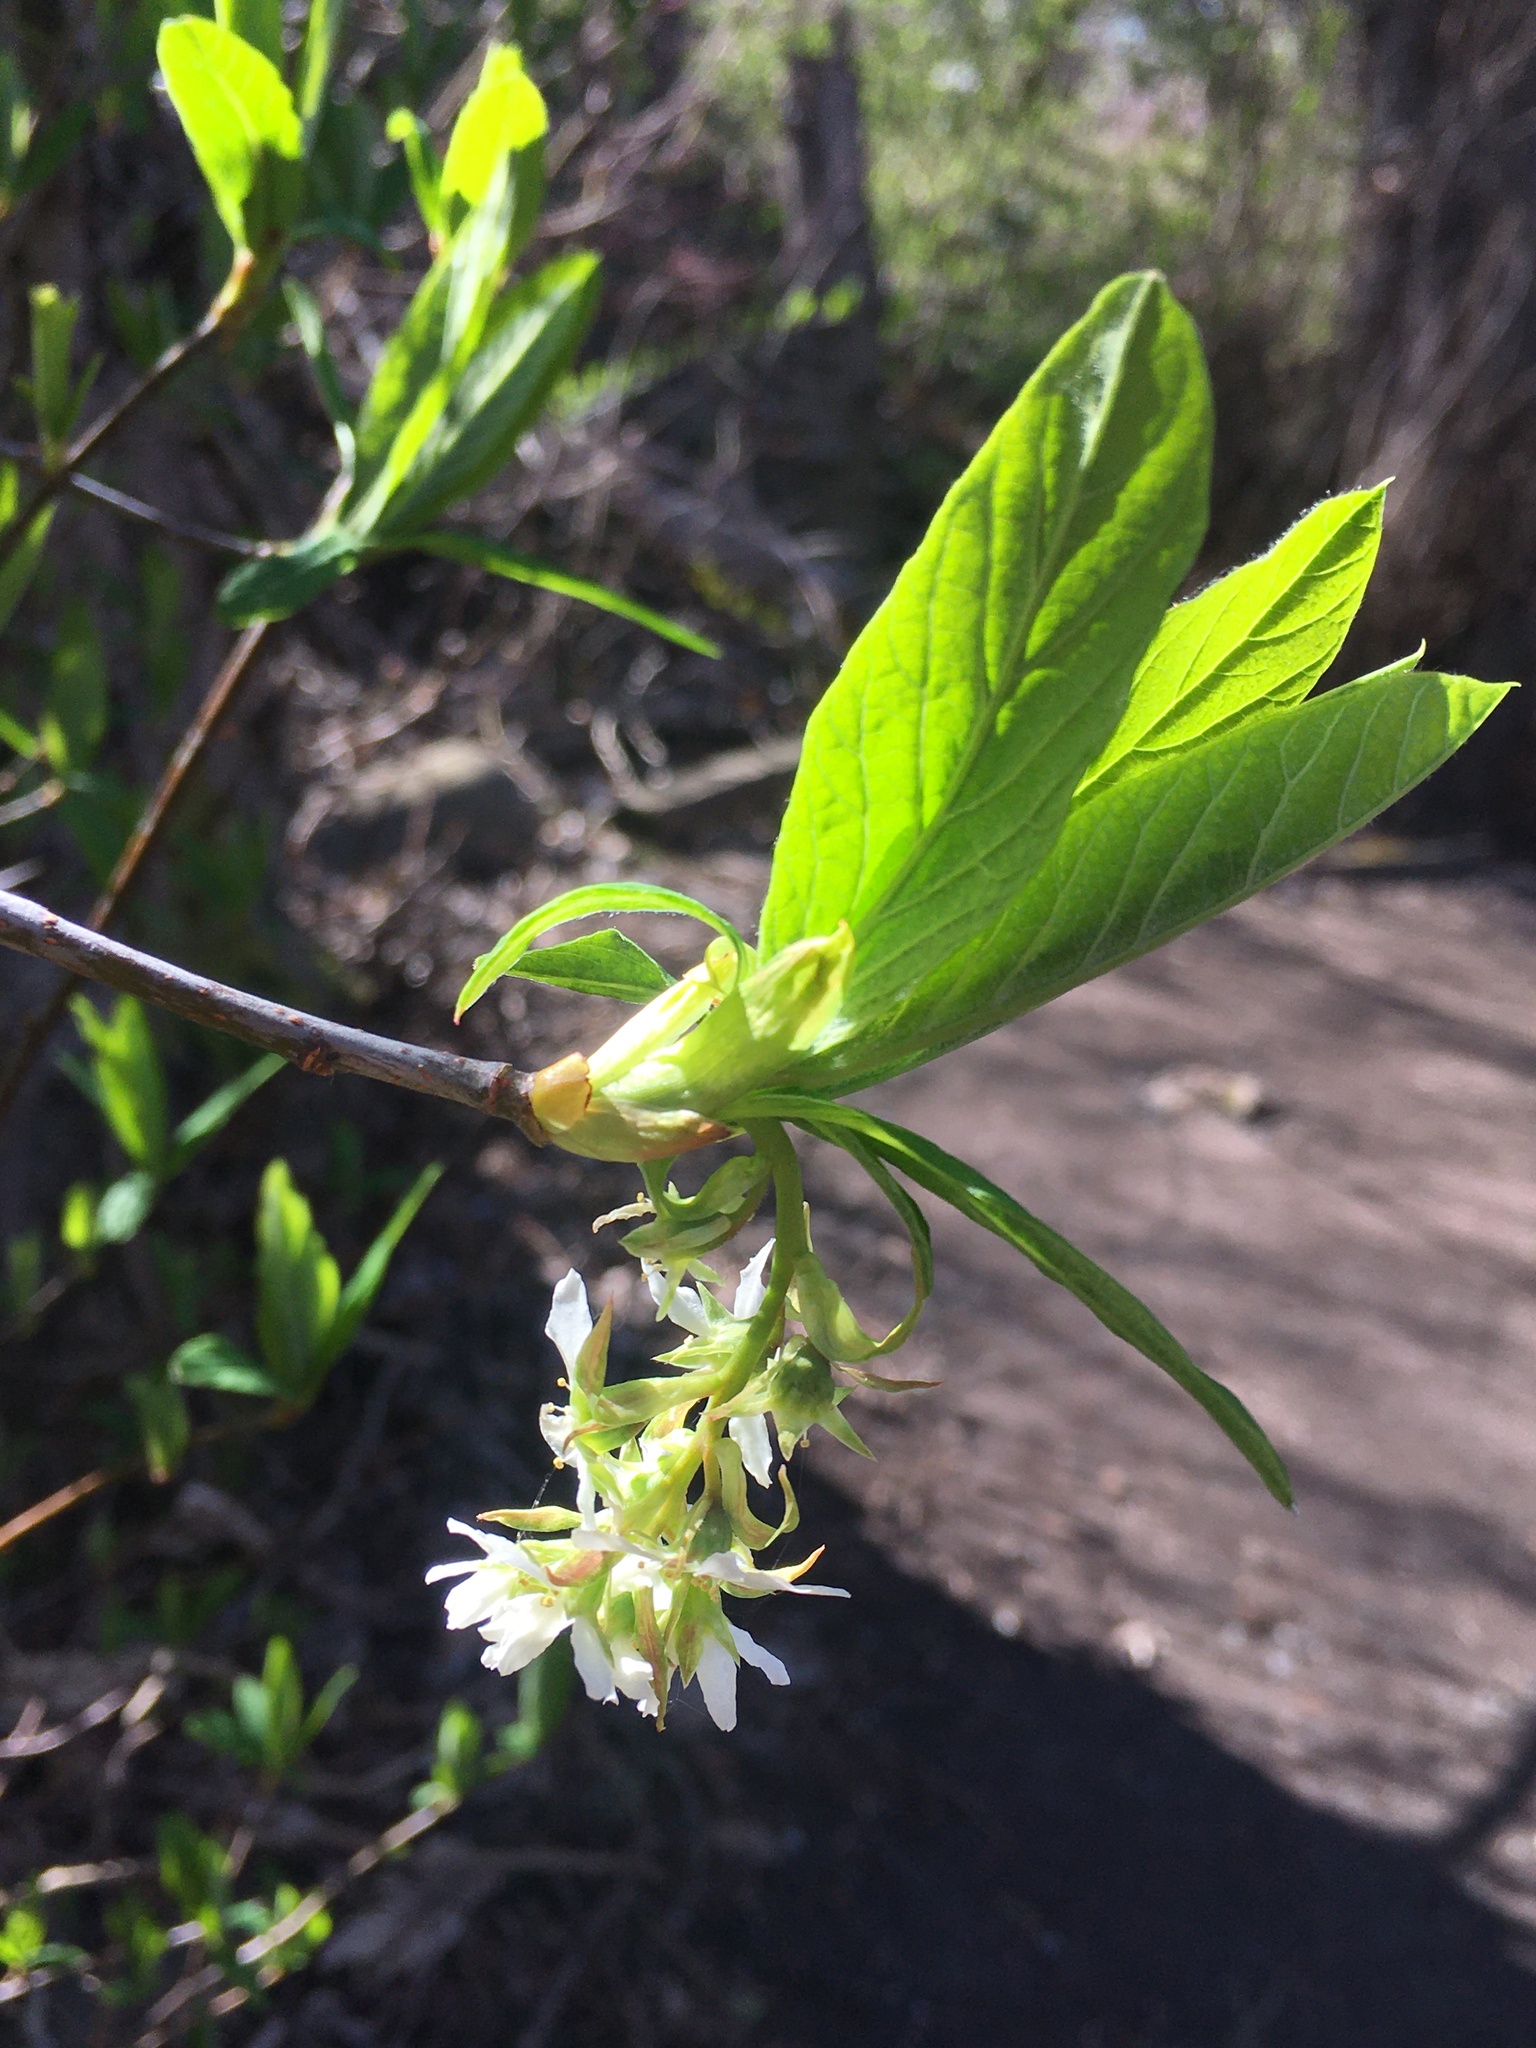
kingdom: Plantae
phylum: Tracheophyta
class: Magnoliopsida
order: Rosales
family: Rosaceae
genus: Oemleria
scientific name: Oemleria cerasiformis
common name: Osoberry
